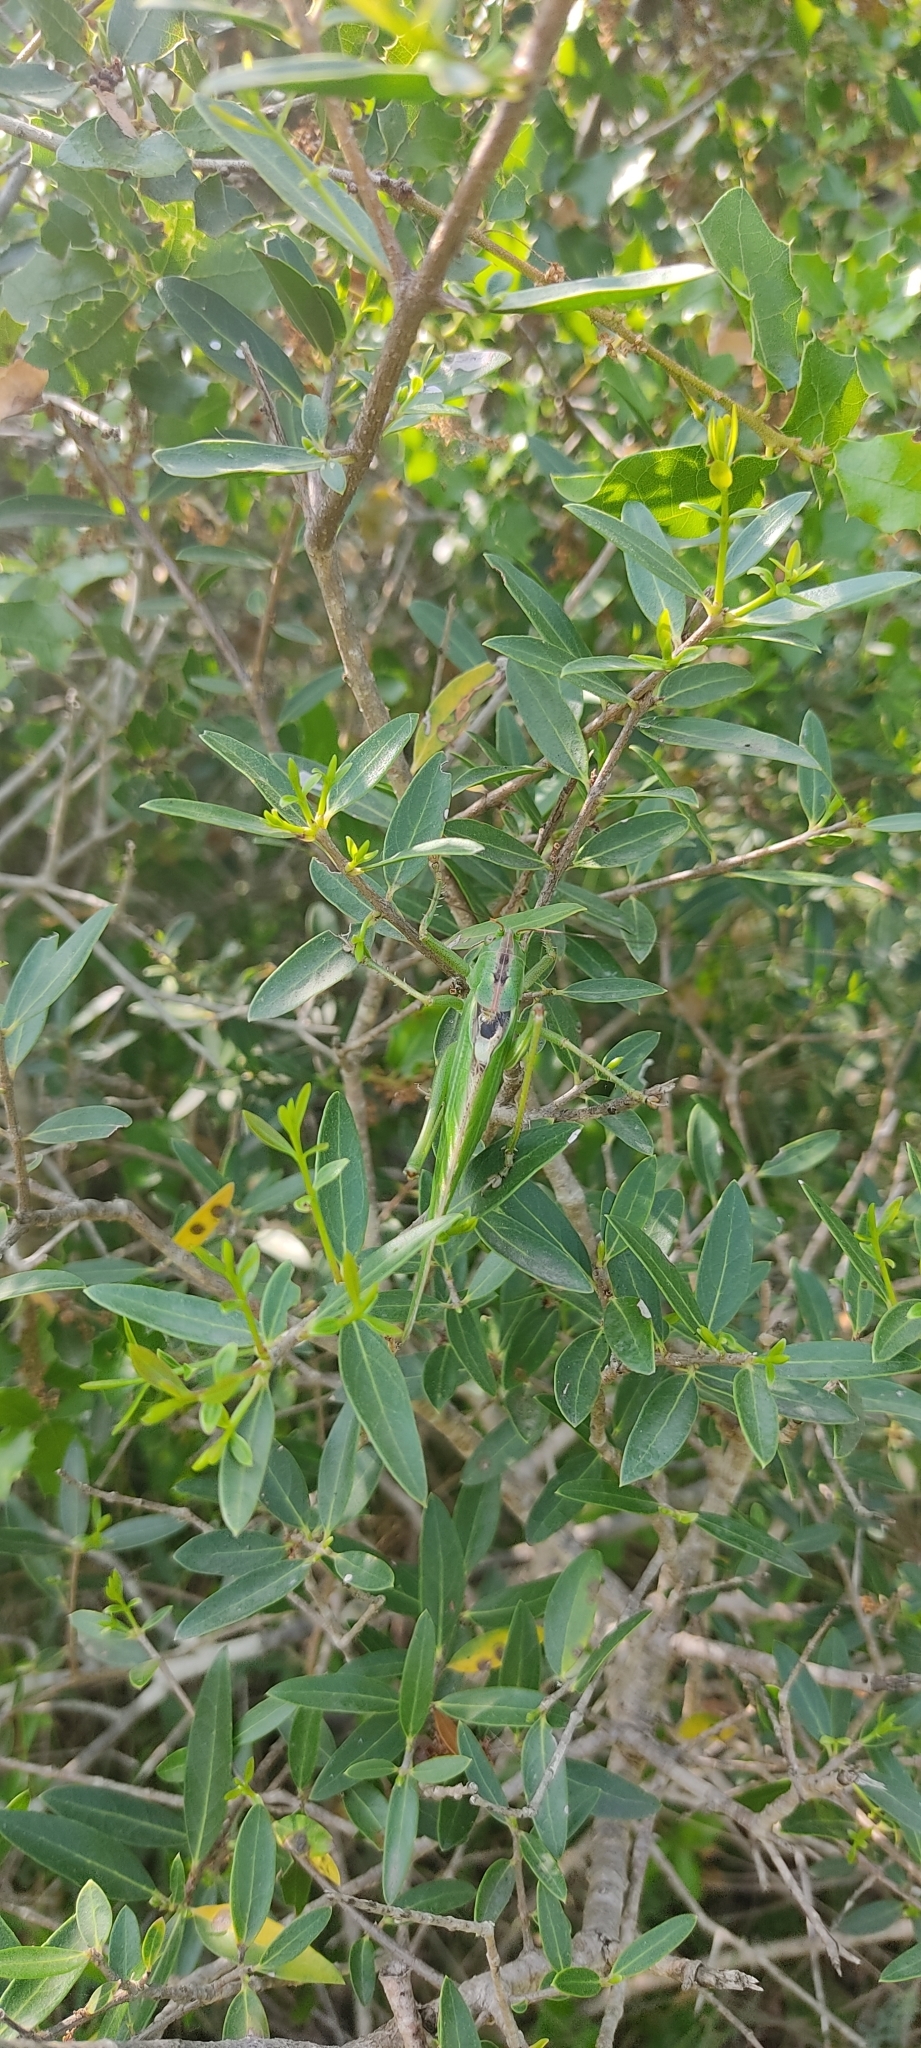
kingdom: Animalia
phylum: Arthropoda
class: Insecta
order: Orthoptera
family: Tettigoniidae
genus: Tettigonia
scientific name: Tettigonia viridissima
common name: Great green bush-cricket
